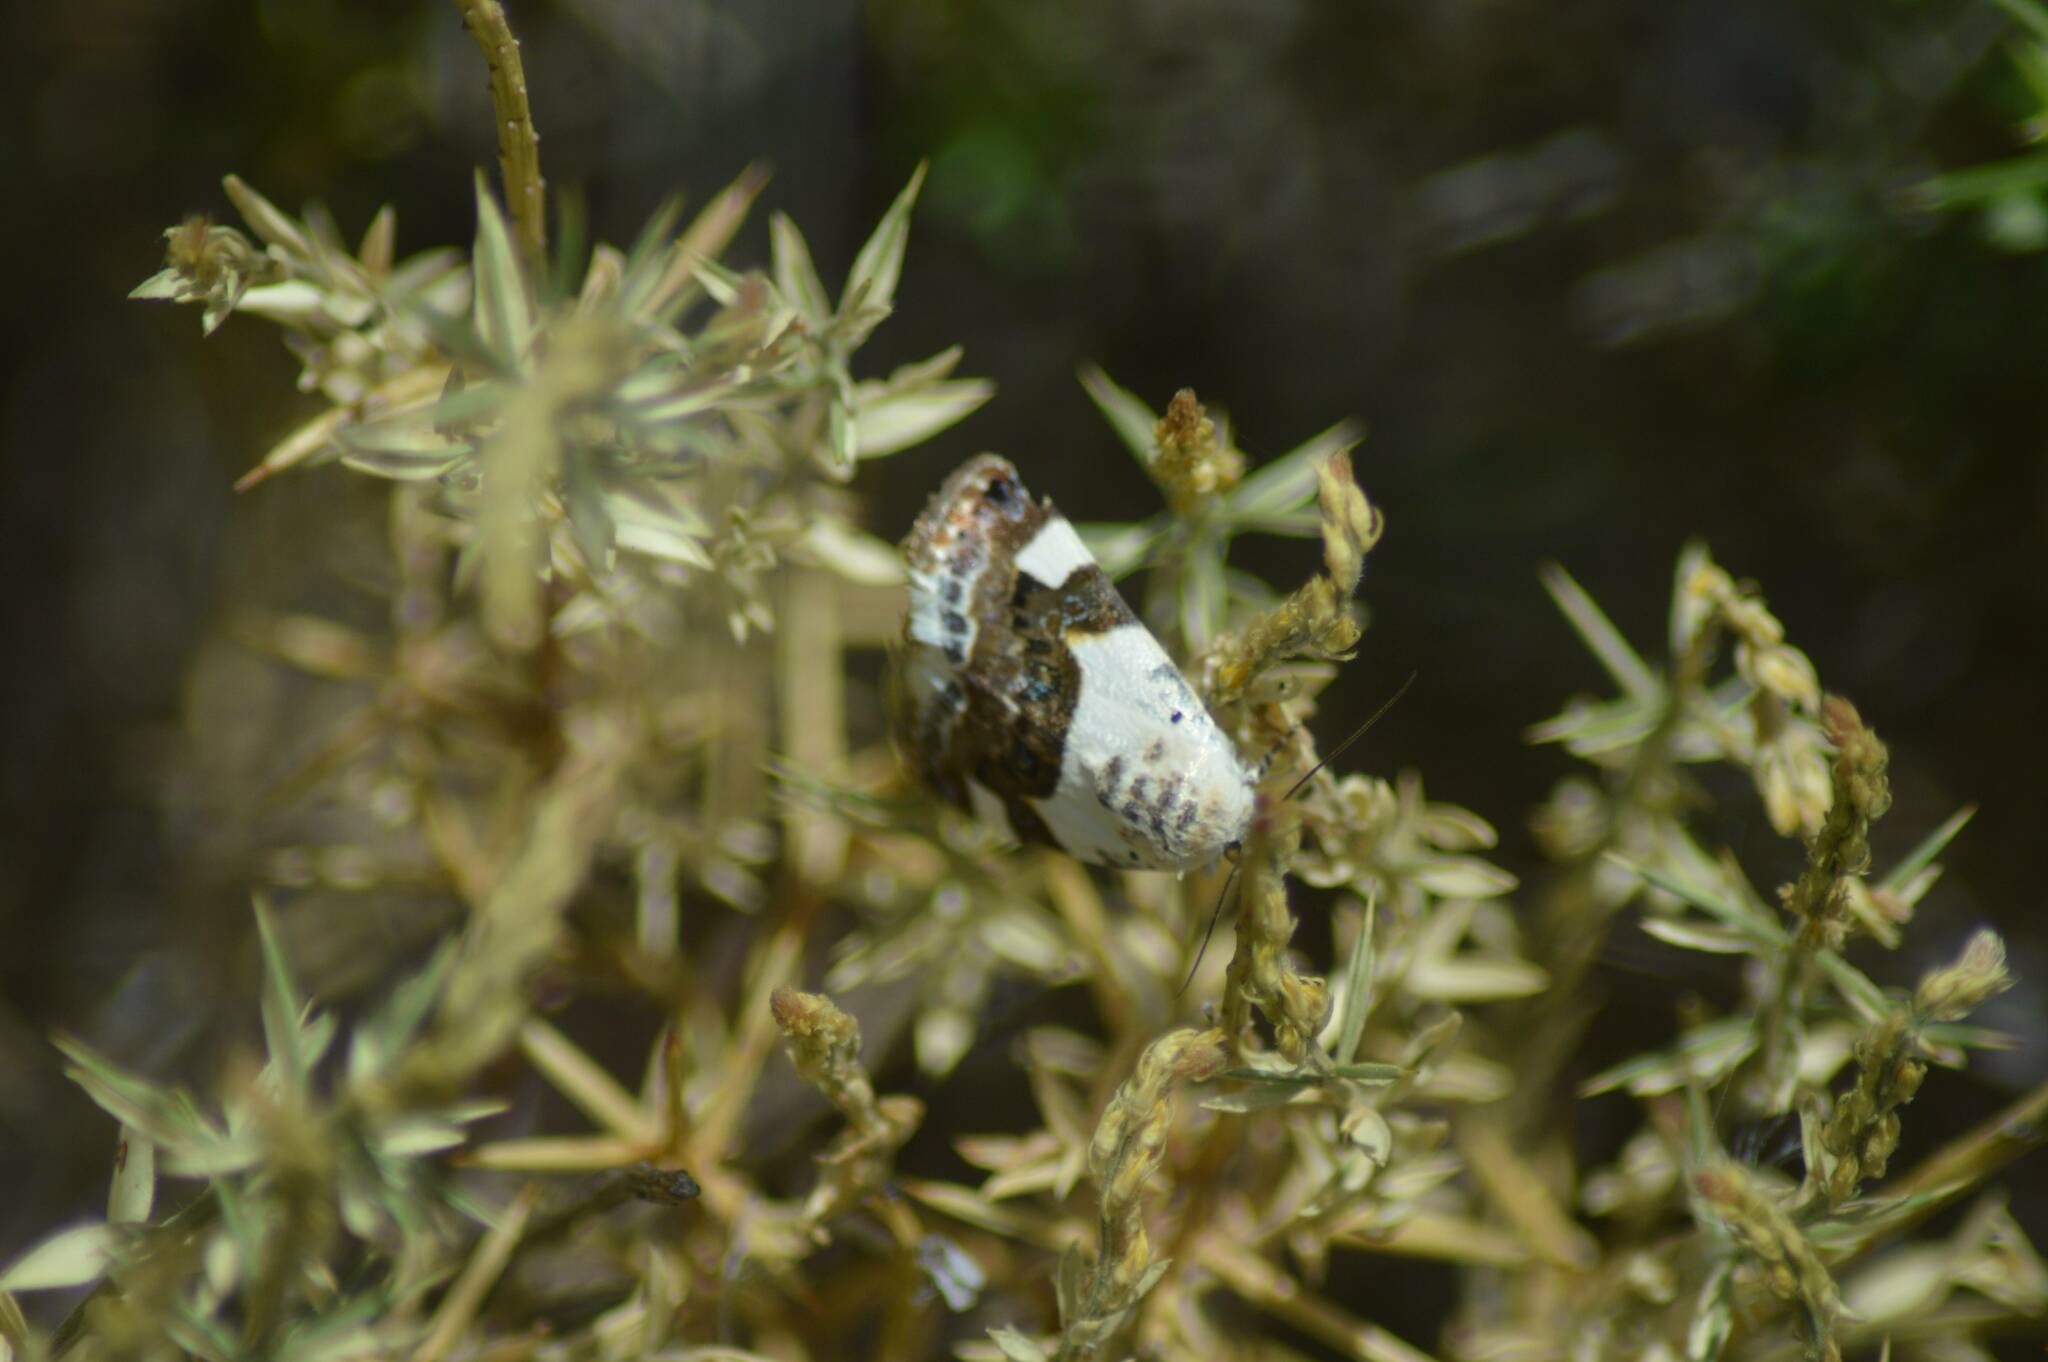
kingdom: Animalia
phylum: Arthropoda
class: Insecta
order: Lepidoptera
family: Noctuidae
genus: Acontia
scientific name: Acontia lucida
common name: Pale shoulder
